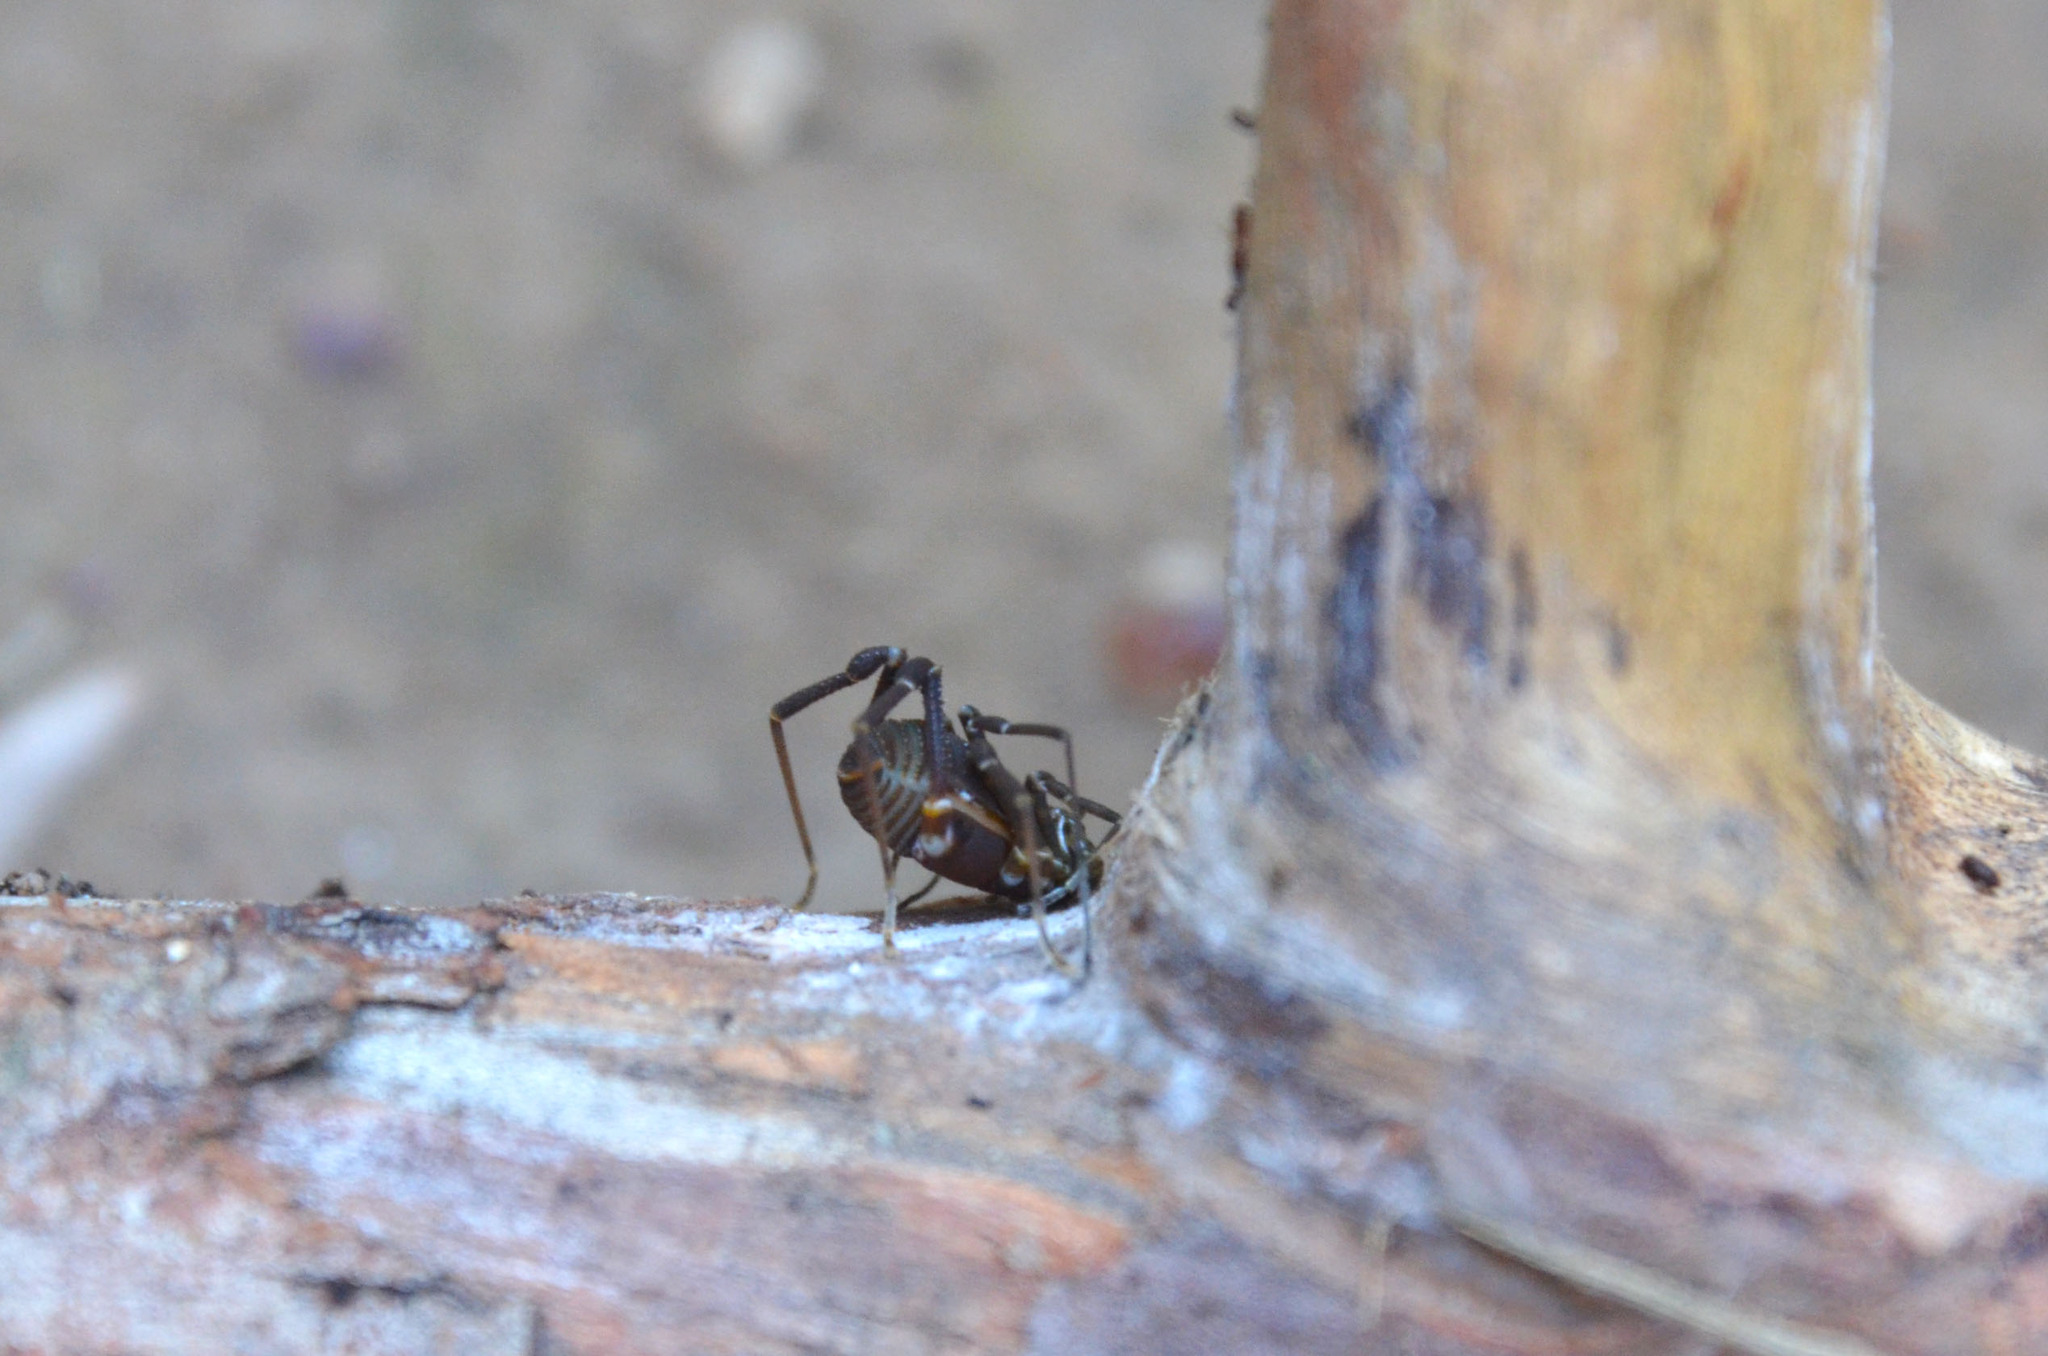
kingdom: Animalia
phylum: Arthropoda
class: Arachnida
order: Opiliones
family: Gonyleptidae
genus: Acanthopachylus
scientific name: Acanthopachylus robustus
